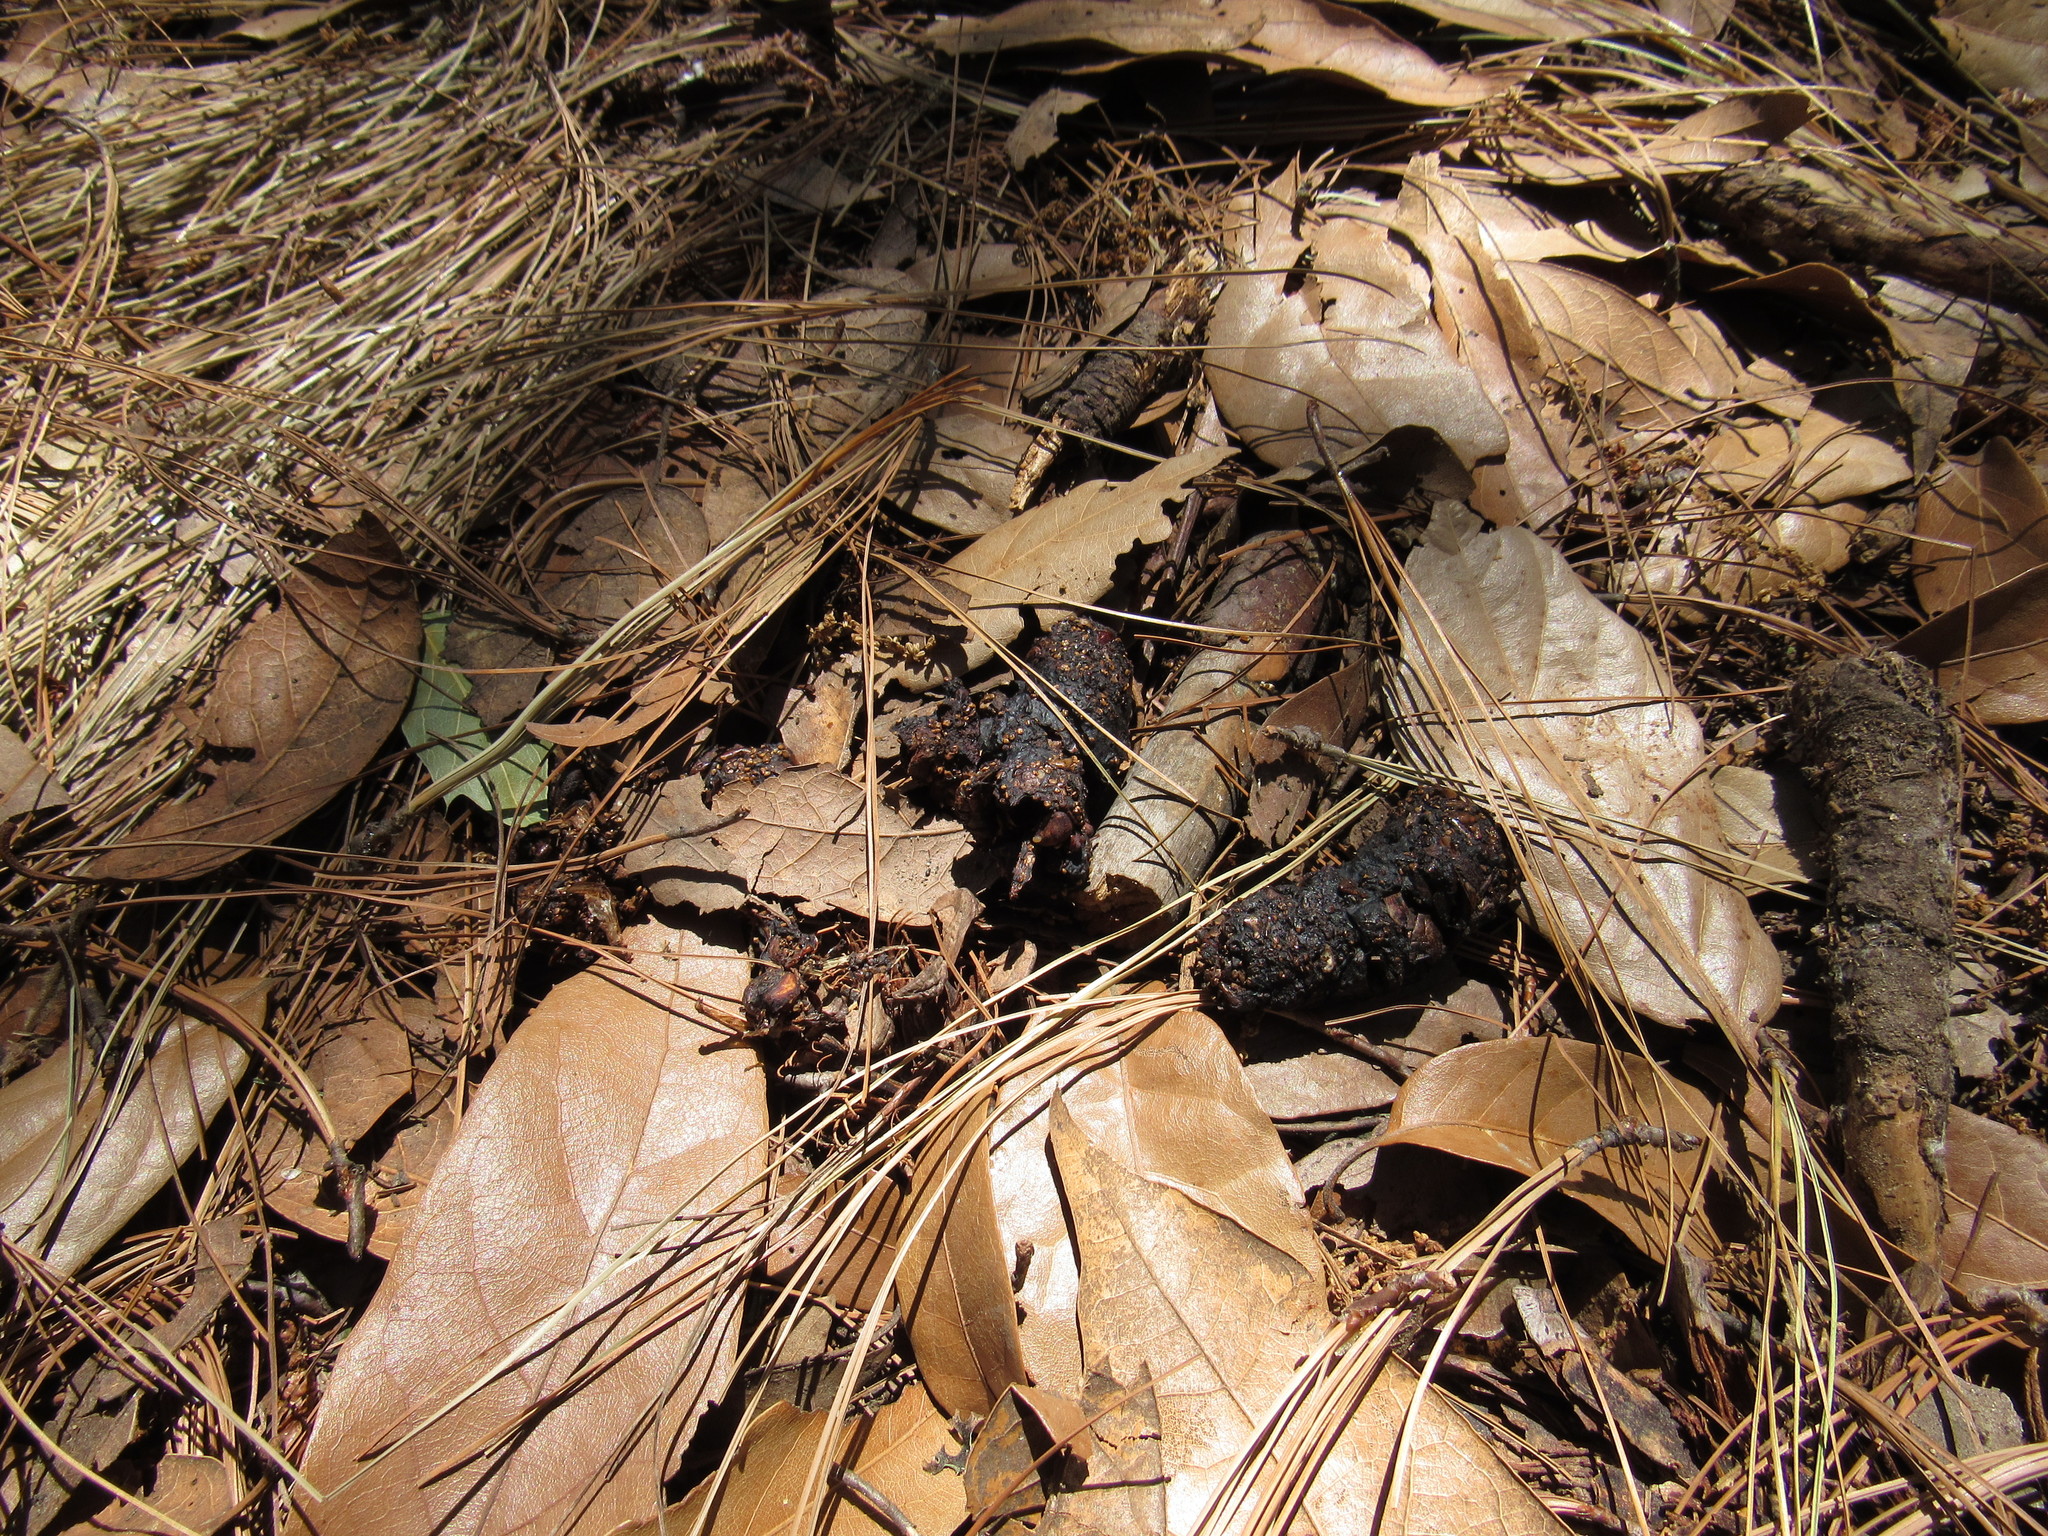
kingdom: Animalia
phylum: Chordata
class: Mammalia
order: Carnivora
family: Canidae
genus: Urocyon
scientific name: Urocyon cinereoargenteus
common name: Gray fox
